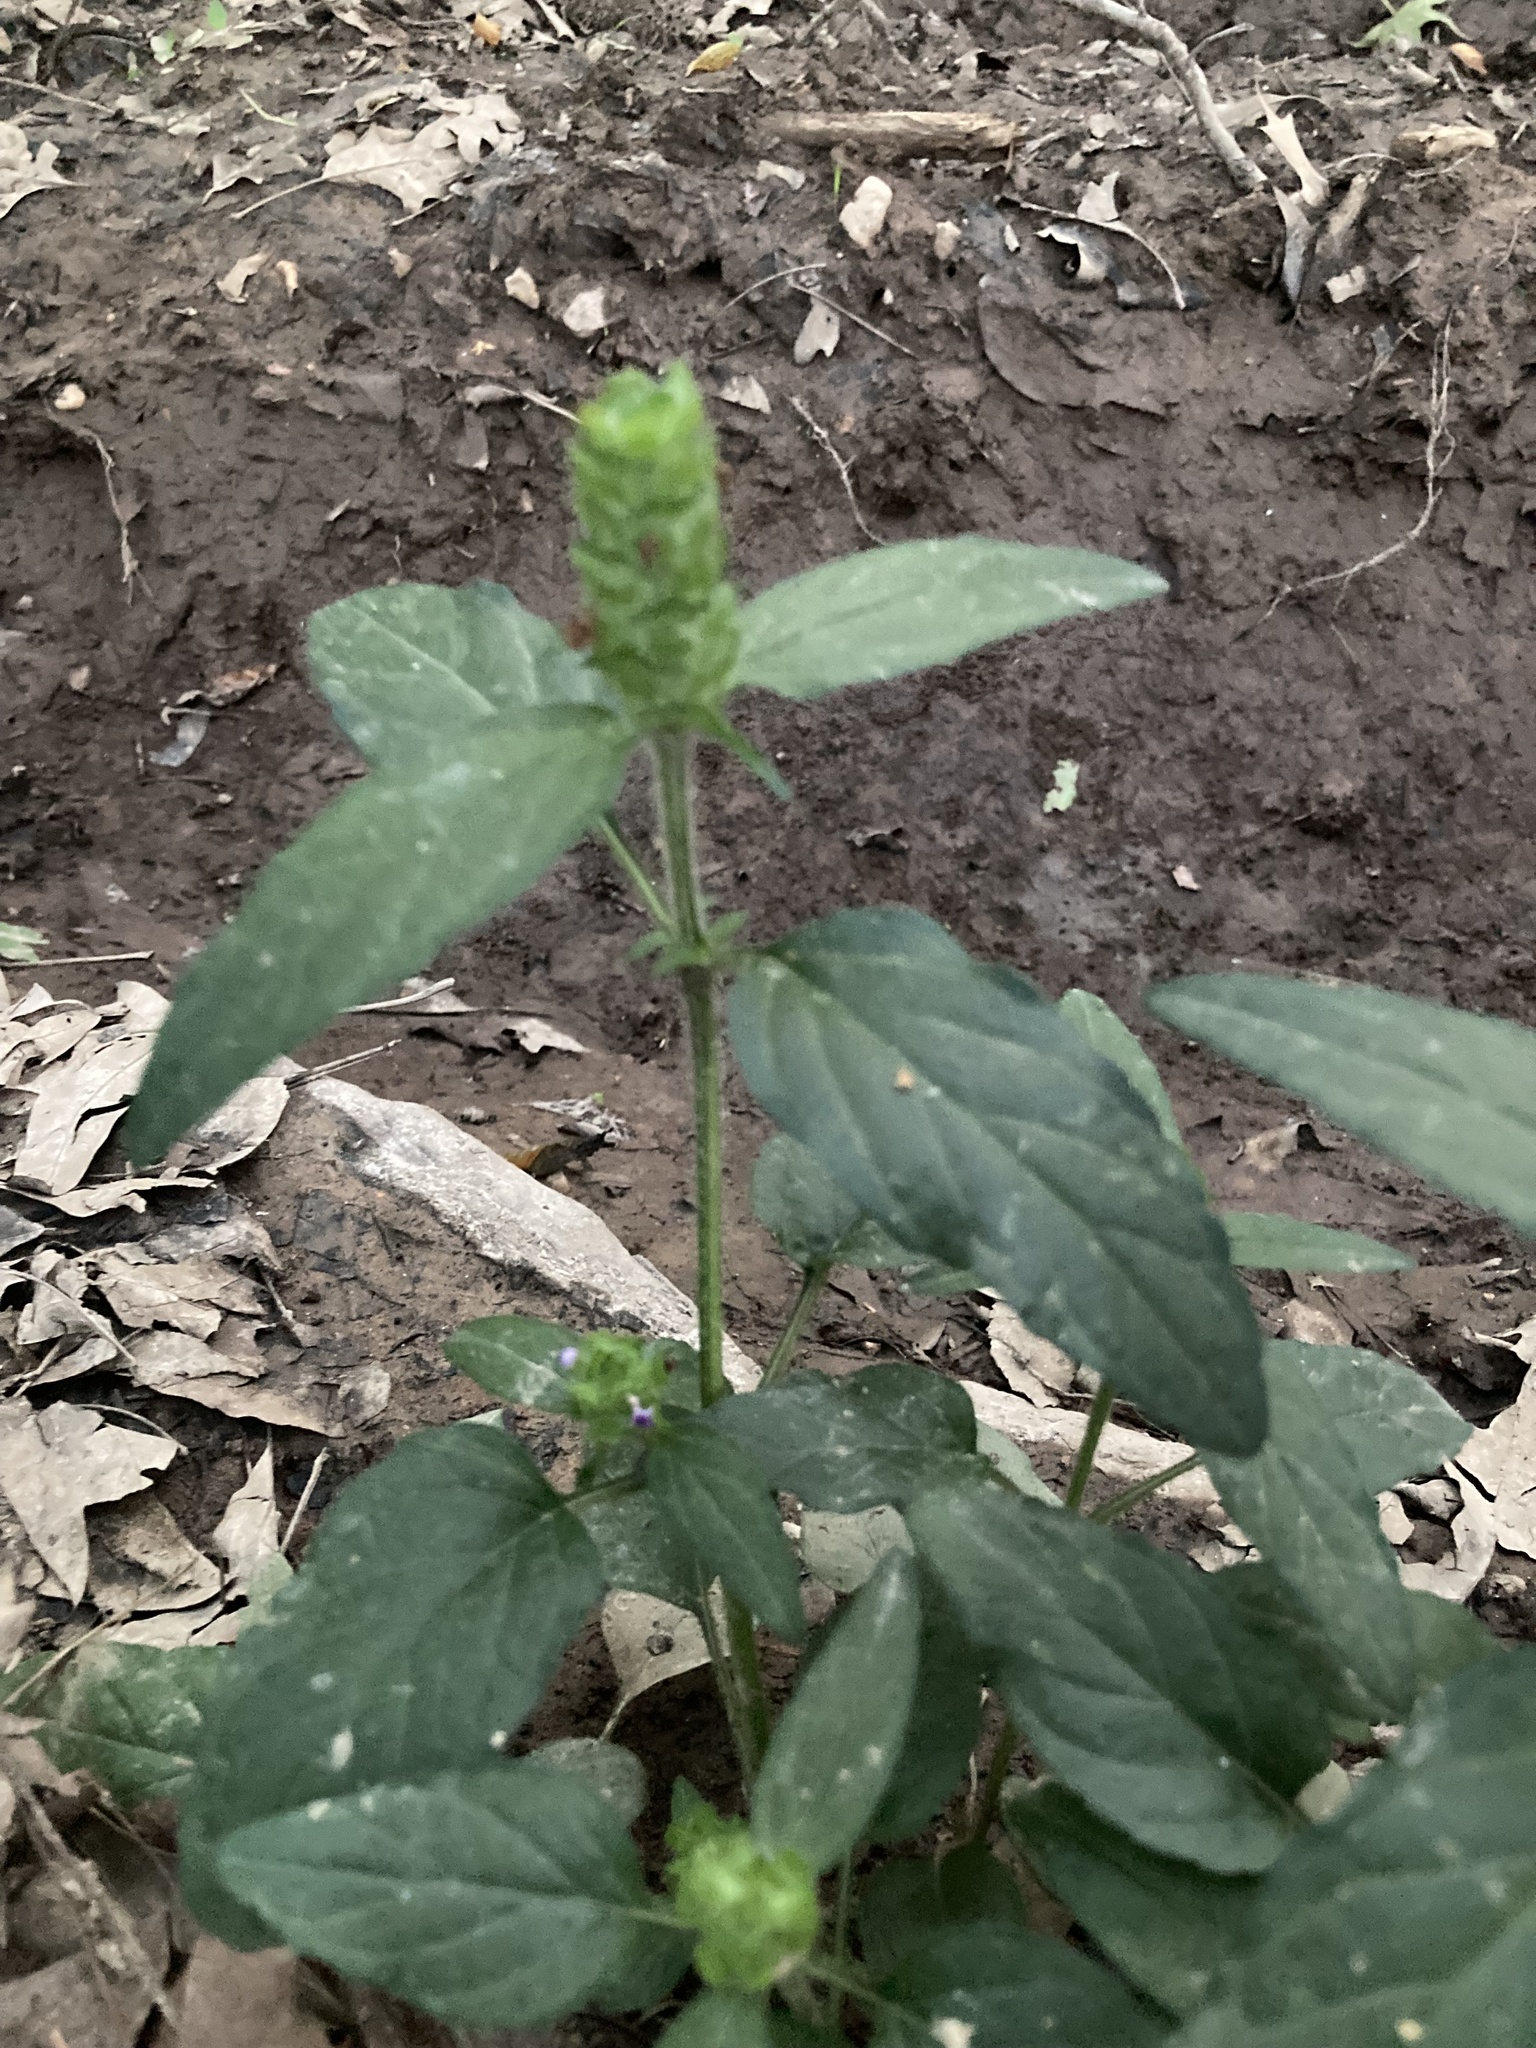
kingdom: Plantae
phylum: Tracheophyta
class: Magnoliopsida
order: Lamiales
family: Lamiaceae
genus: Prunella
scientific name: Prunella vulgaris
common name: Heal-all
